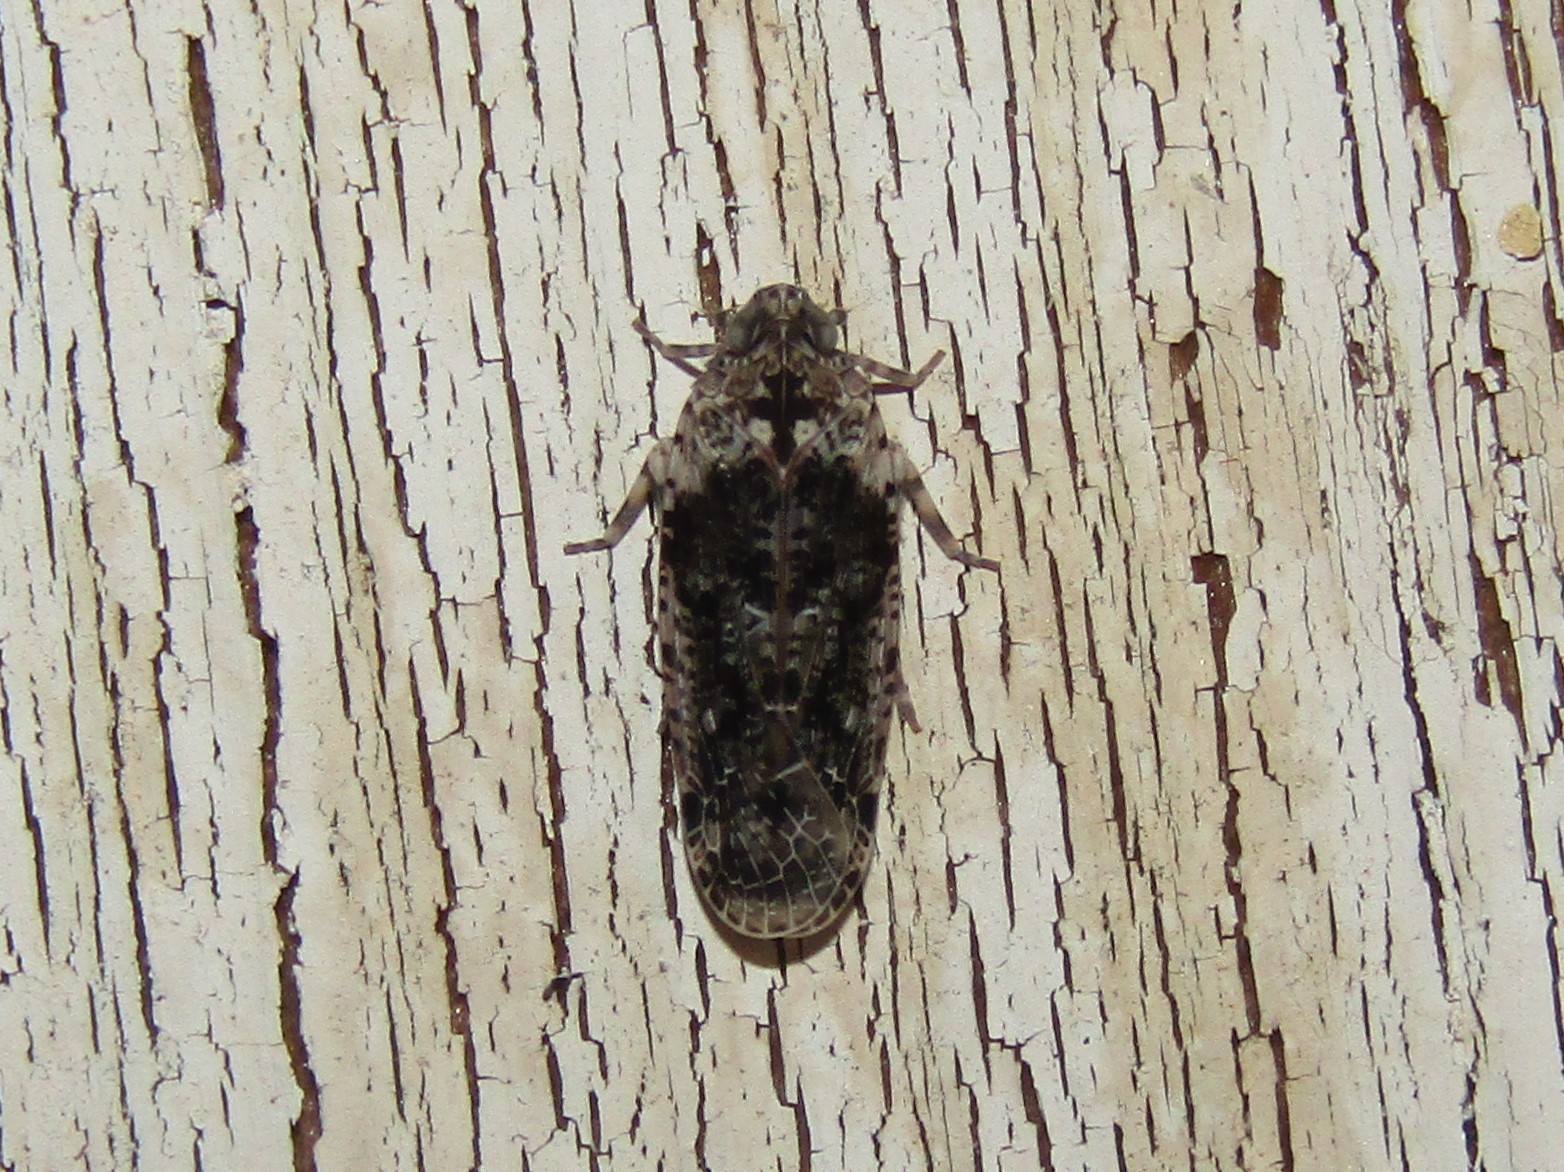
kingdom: Animalia
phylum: Arthropoda
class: Insecta
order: Hemiptera
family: Achilidae
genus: Catonia
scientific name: Catonia nava
